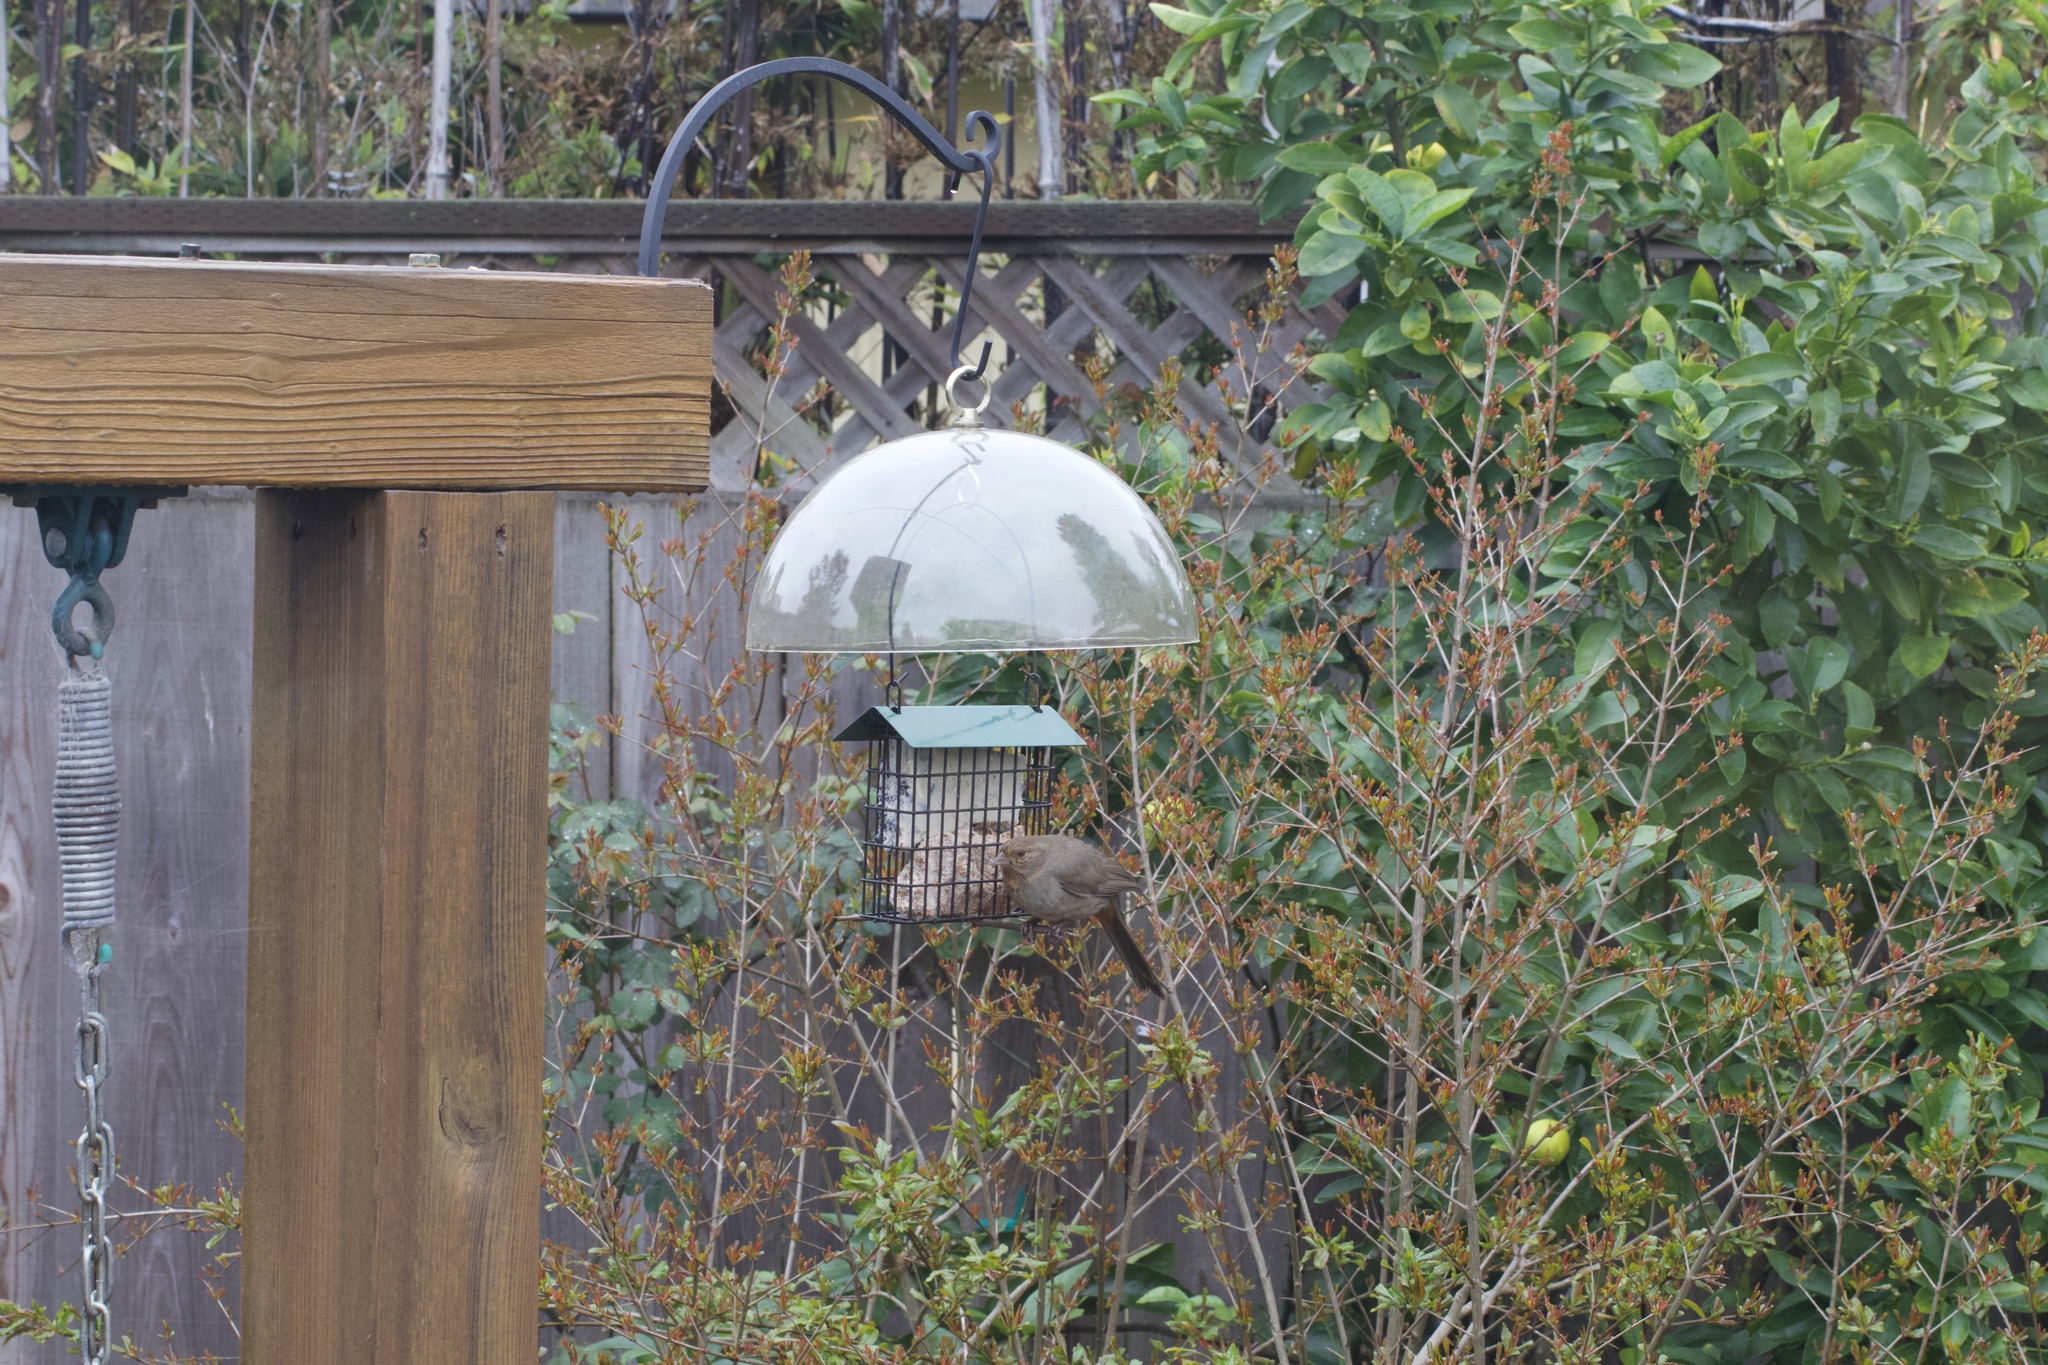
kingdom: Animalia
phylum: Chordata
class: Aves
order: Passeriformes
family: Passerellidae
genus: Melozone
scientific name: Melozone crissalis
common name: California towhee
